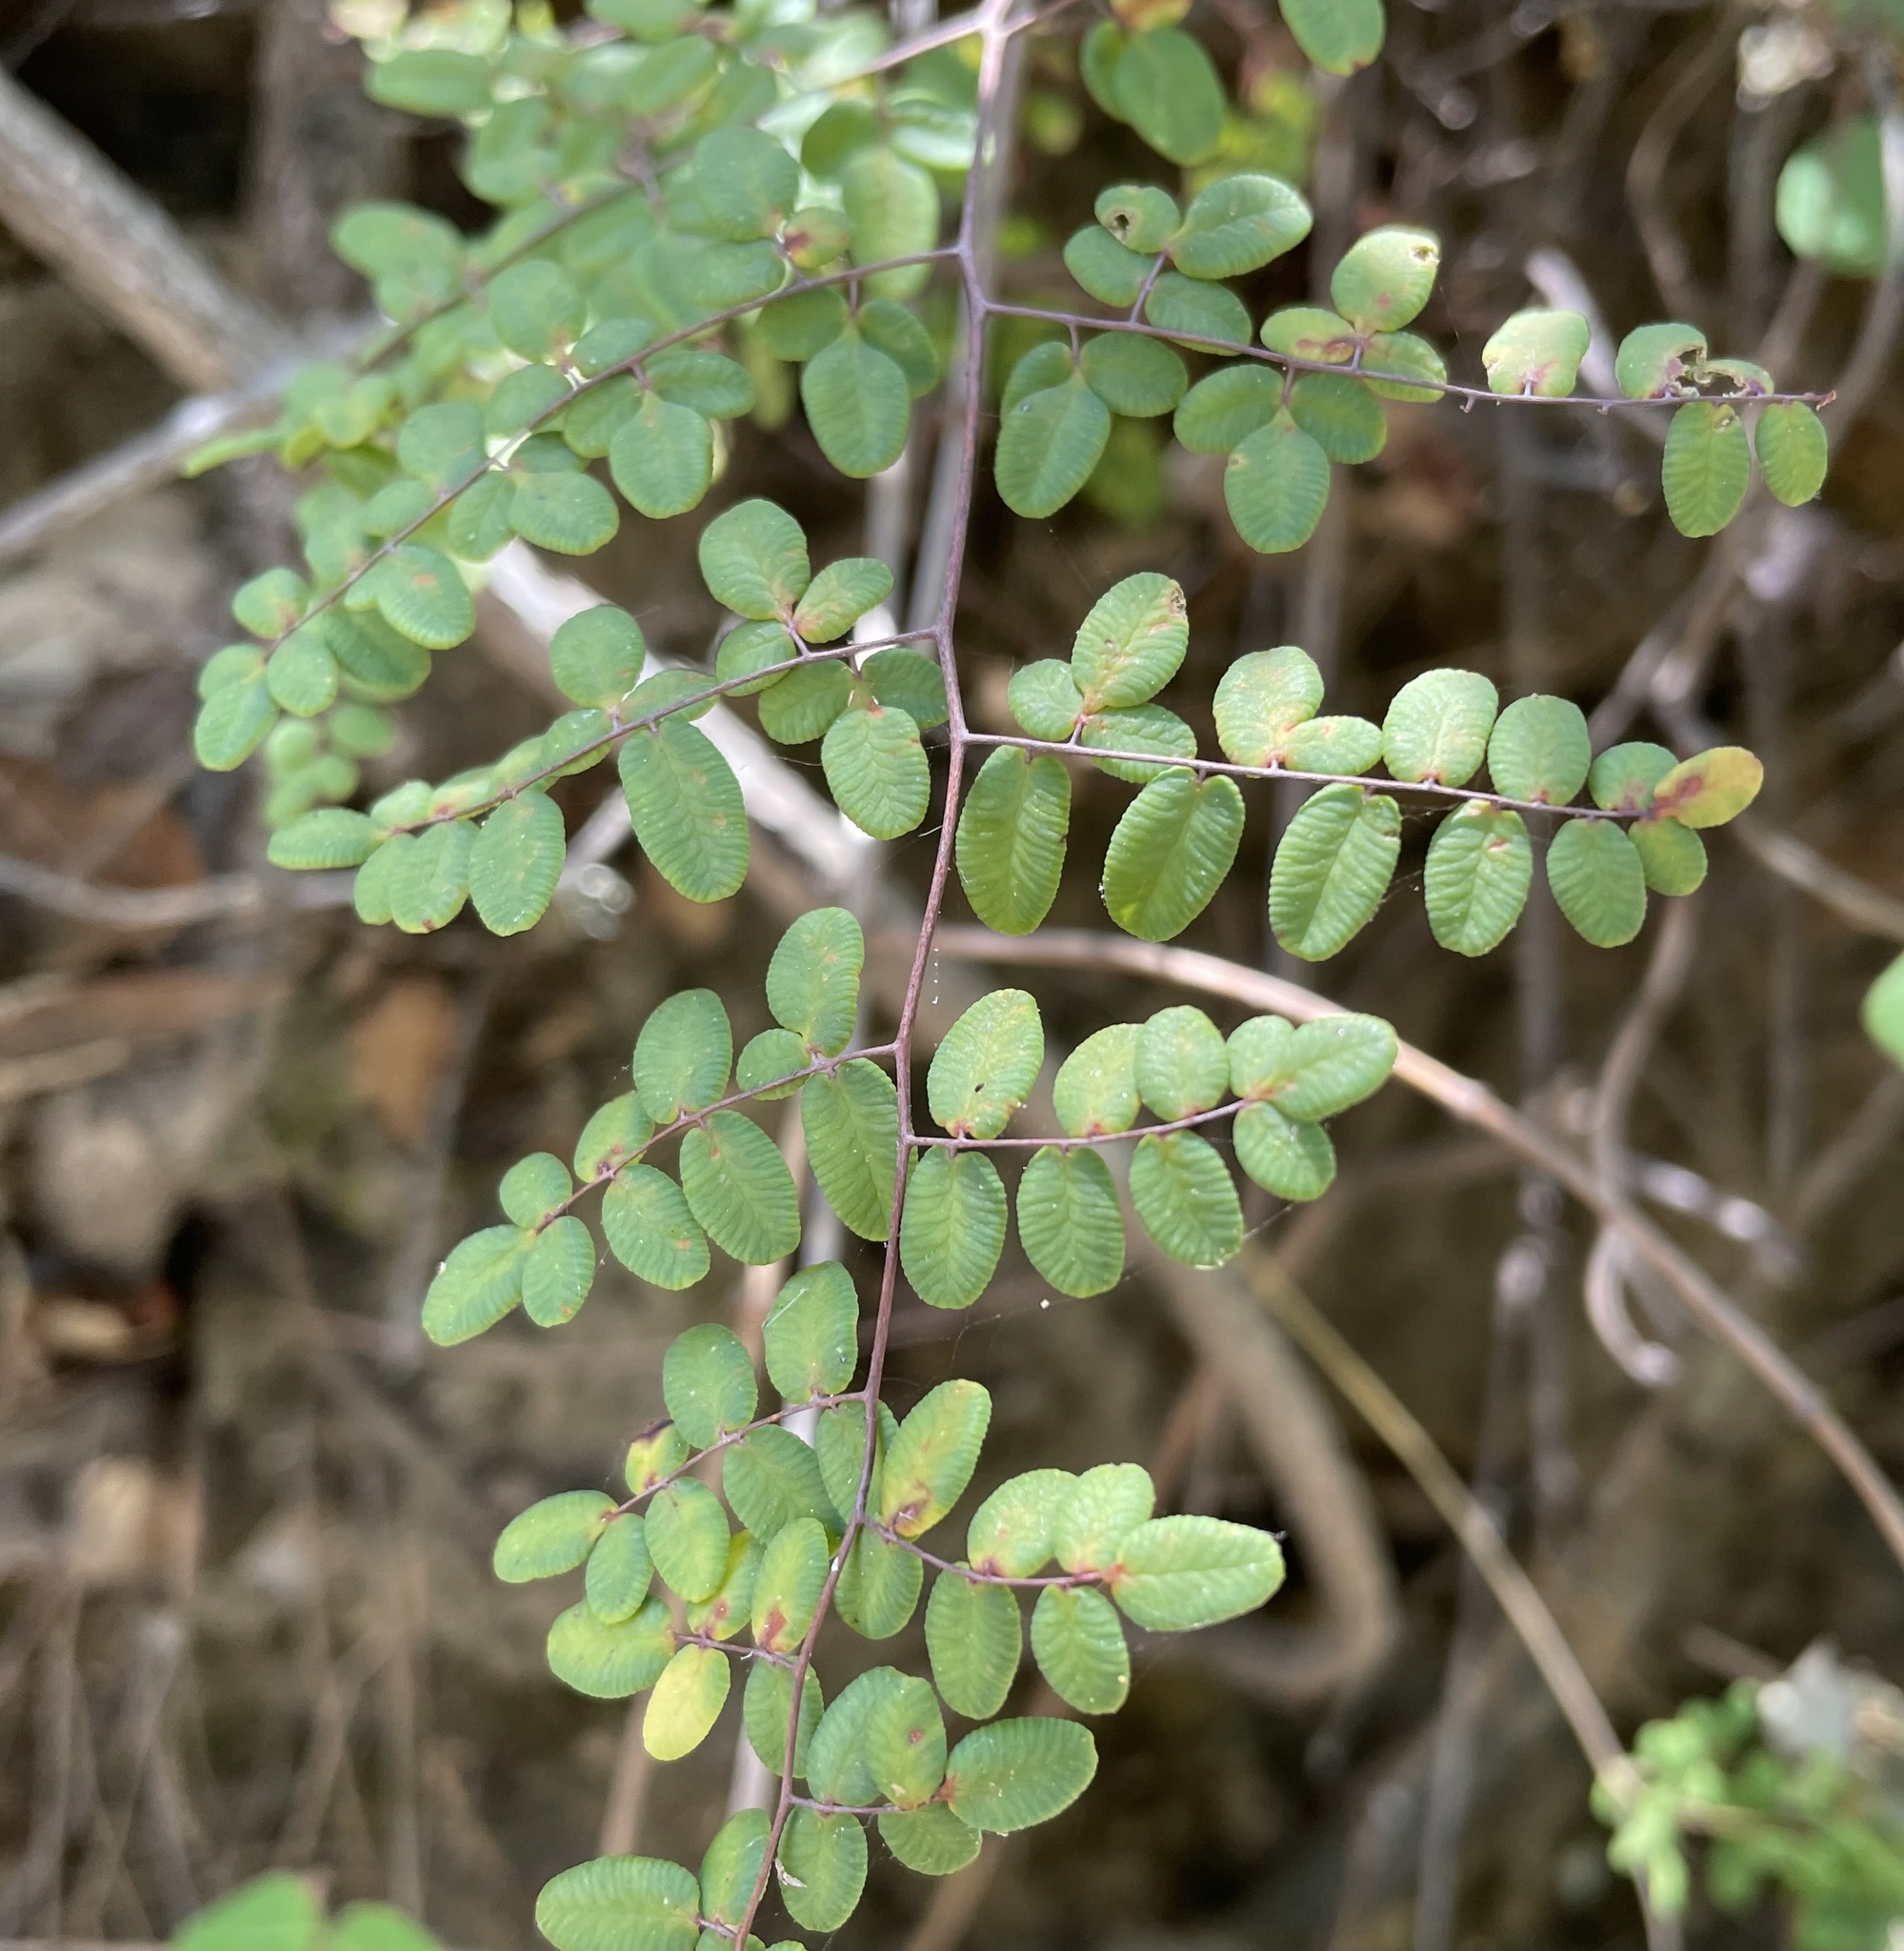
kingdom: Plantae
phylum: Tracheophyta
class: Polypodiopsida
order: Polypodiales
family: Pteridaceae
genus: Pellaea
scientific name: Pellaea andromedifolia
